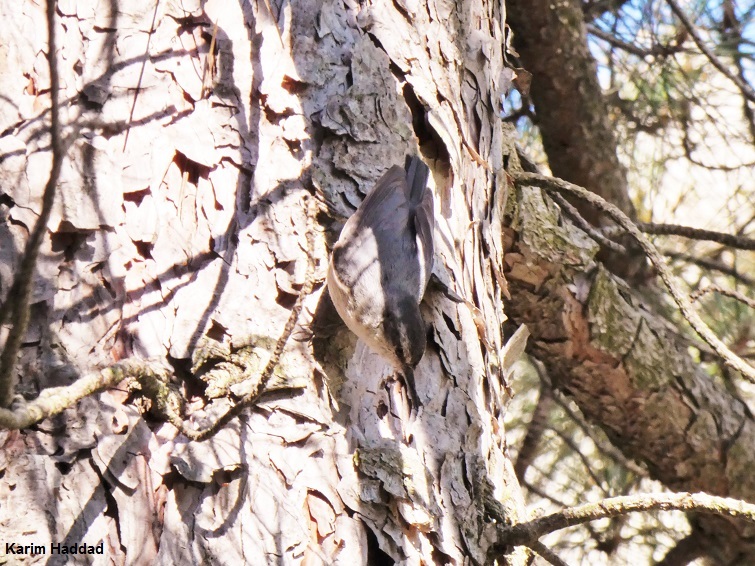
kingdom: Animalia
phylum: Chordata
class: Aves
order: Passeriformes
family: Sittidae
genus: Sitta
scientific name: Sitta whiteheadi
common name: Corsican nuthatch
